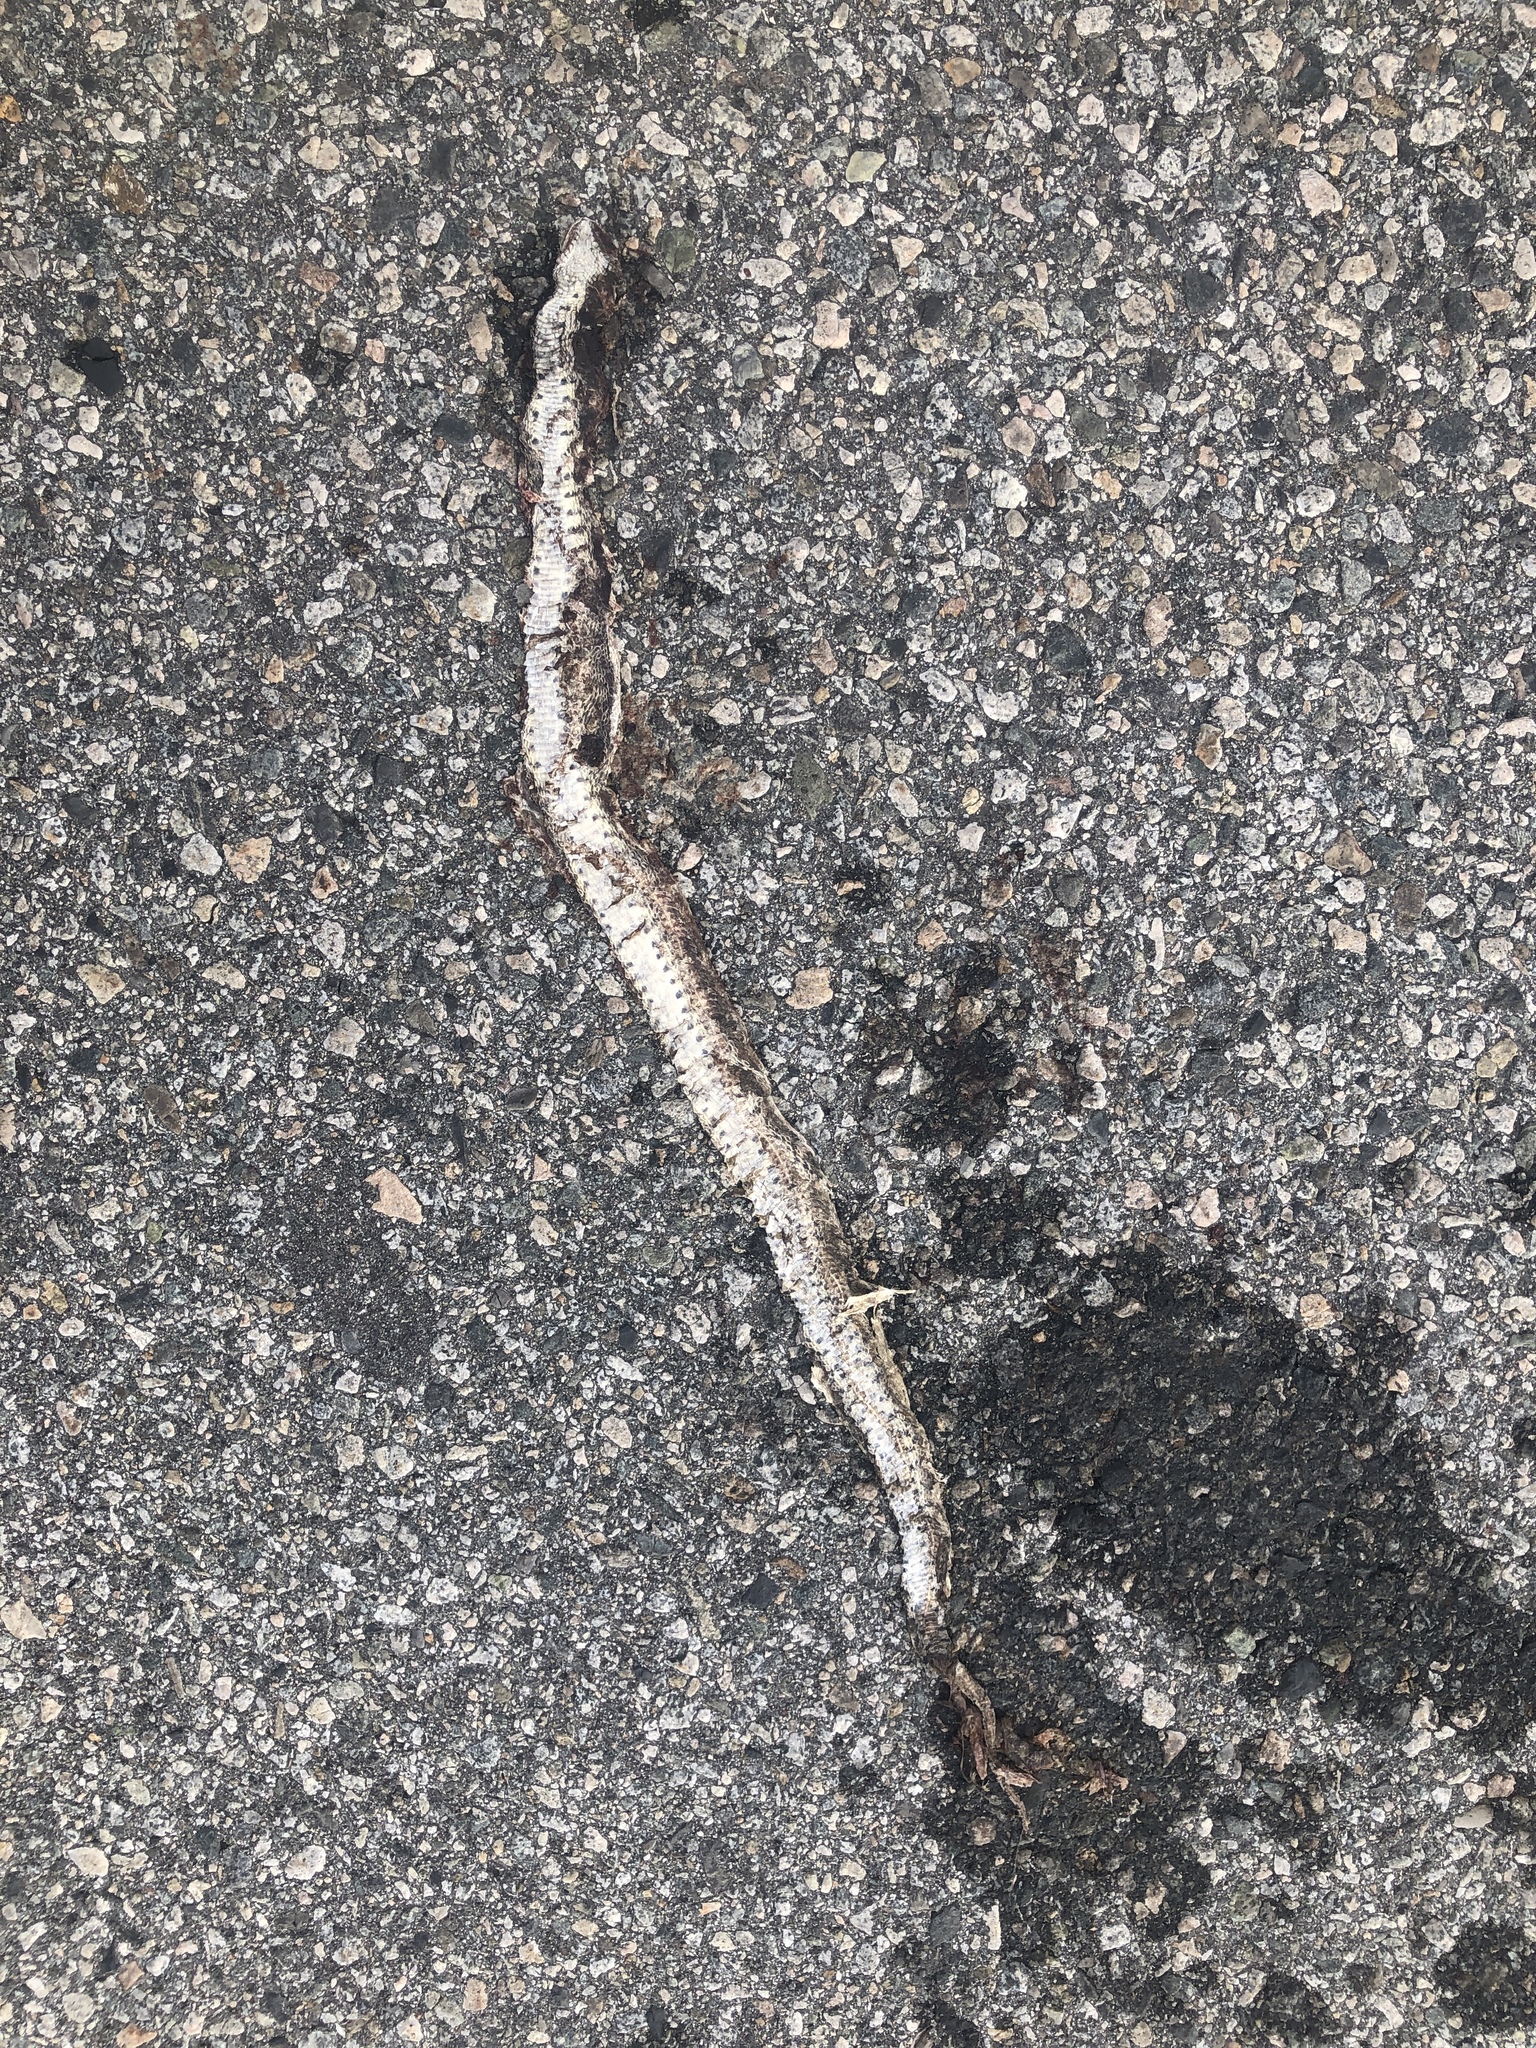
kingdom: Animalia
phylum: Chordata
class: Squamata
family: Colubridae
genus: Pituophis
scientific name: Pituophis catenifer
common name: Gopher snake
